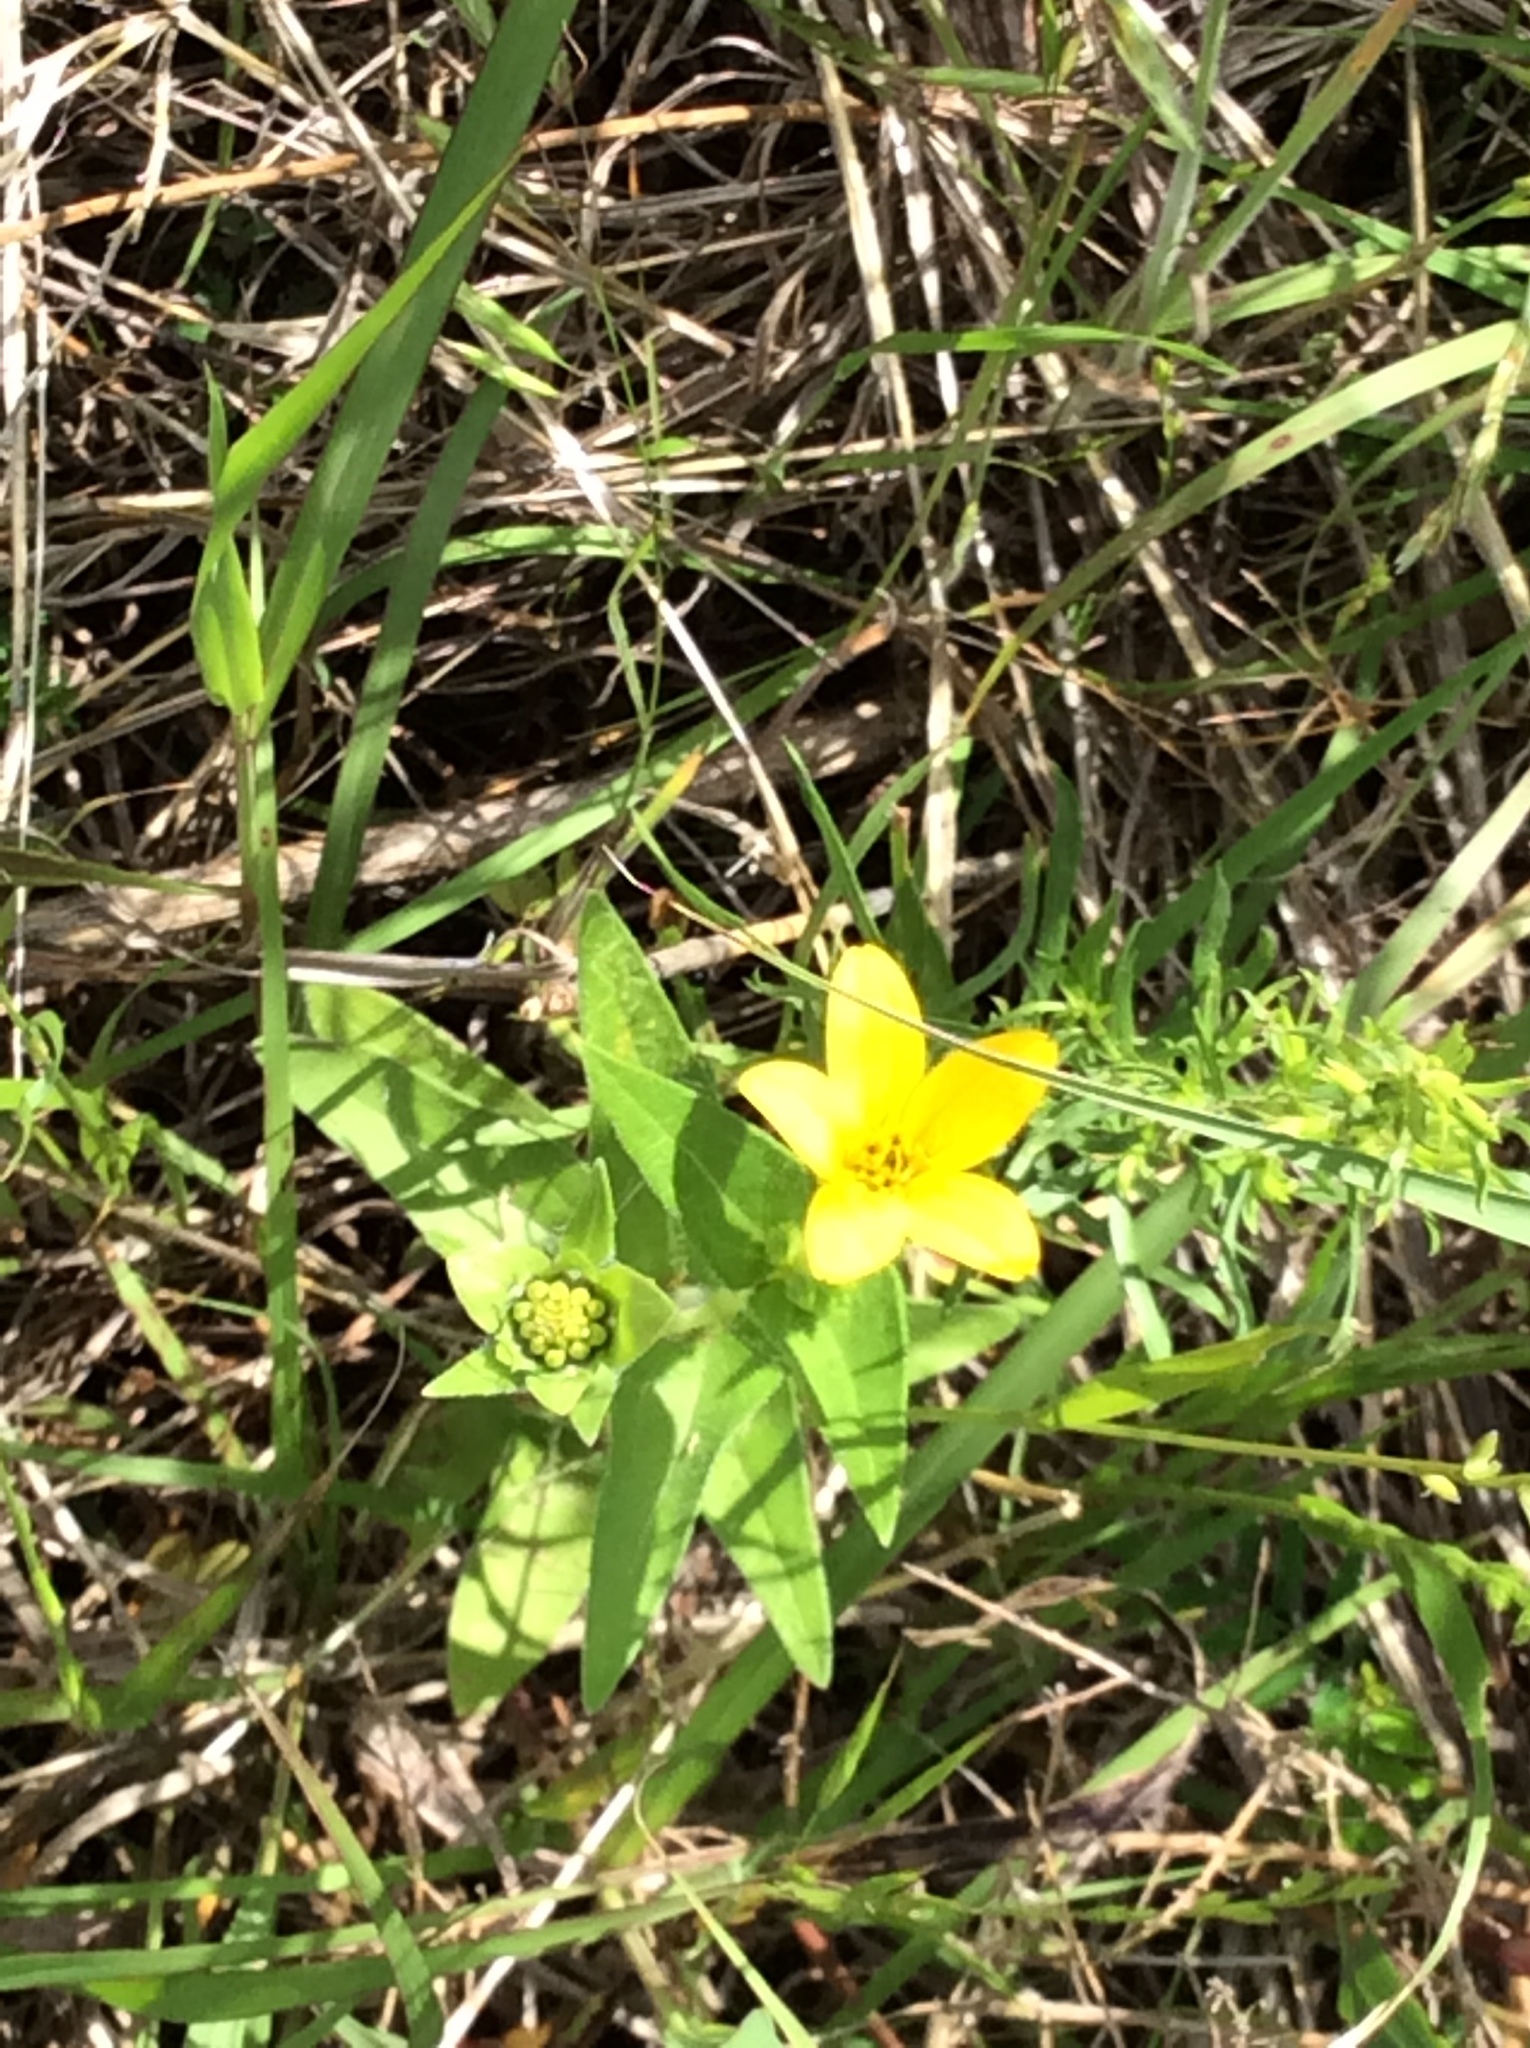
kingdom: Plantae
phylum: Tracheophyta
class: Magnoliopsida
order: Asterales
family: Asteraceae
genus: Lindheimera
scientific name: Lindheimera texana
